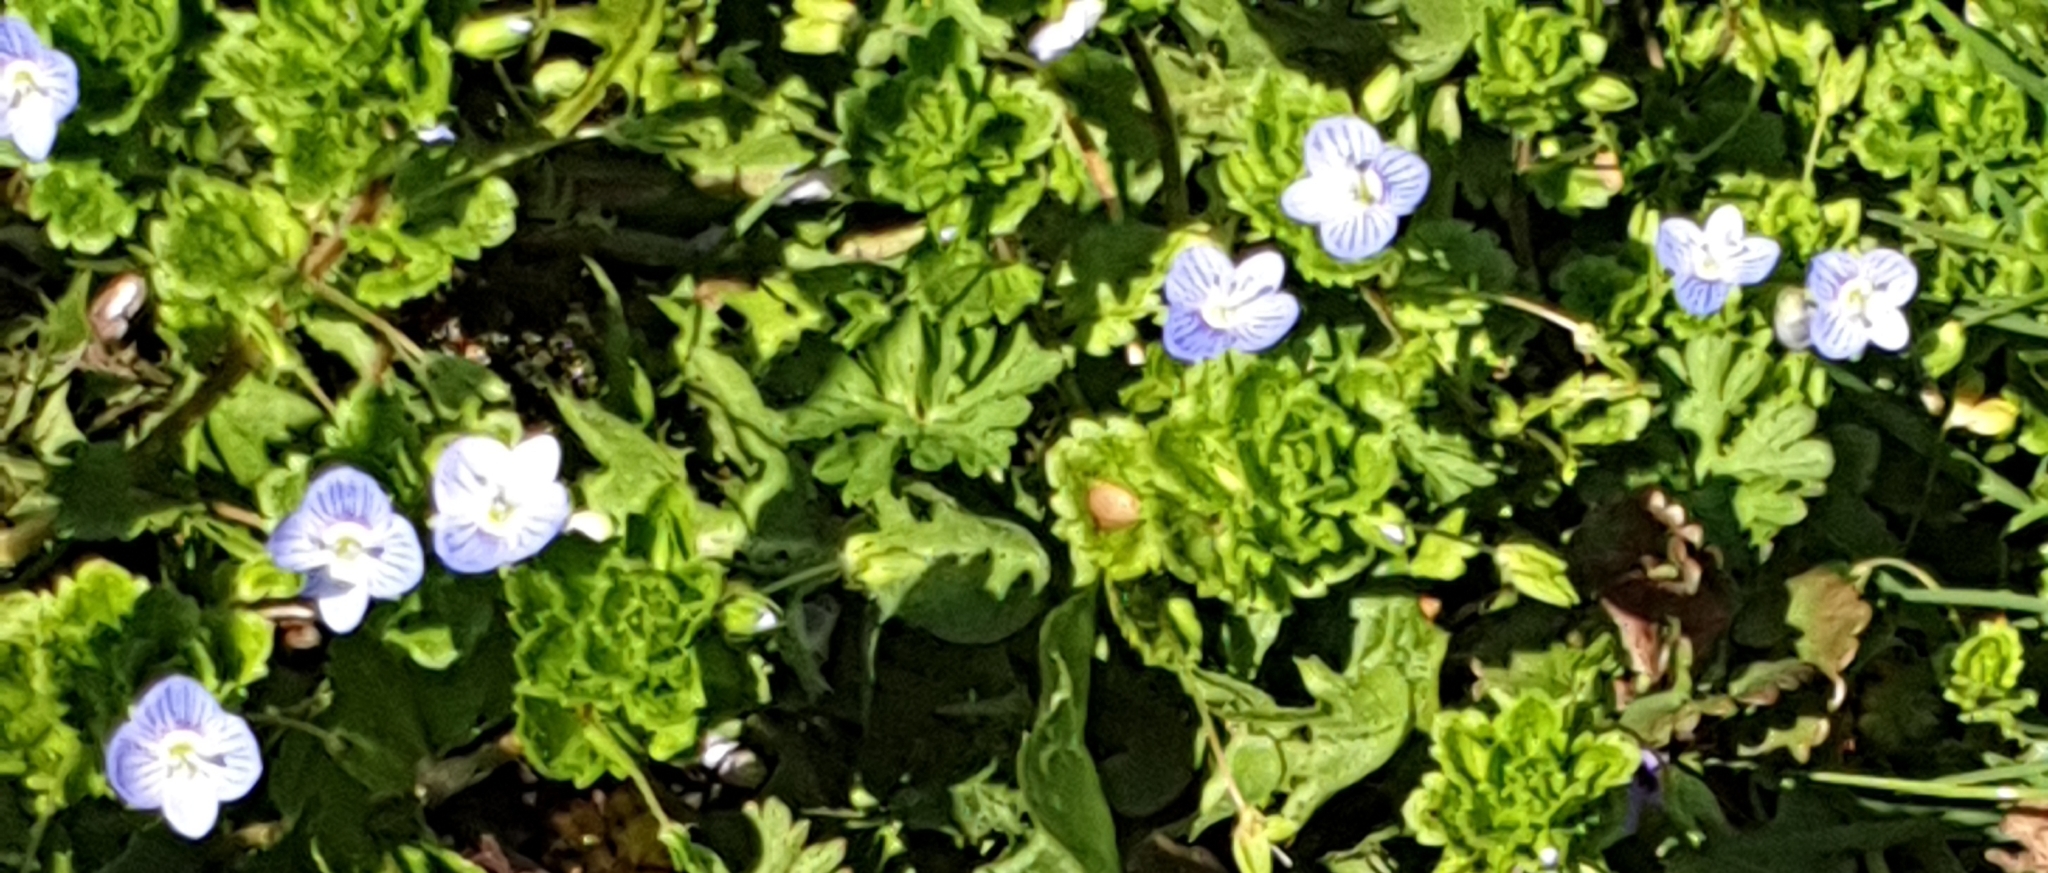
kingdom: Plantae
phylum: Tracheophyta
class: Magnoliopsida
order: Lamiales
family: Plantaginaceae
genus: Veronica
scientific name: Veronica persica
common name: Common field-speedwell
